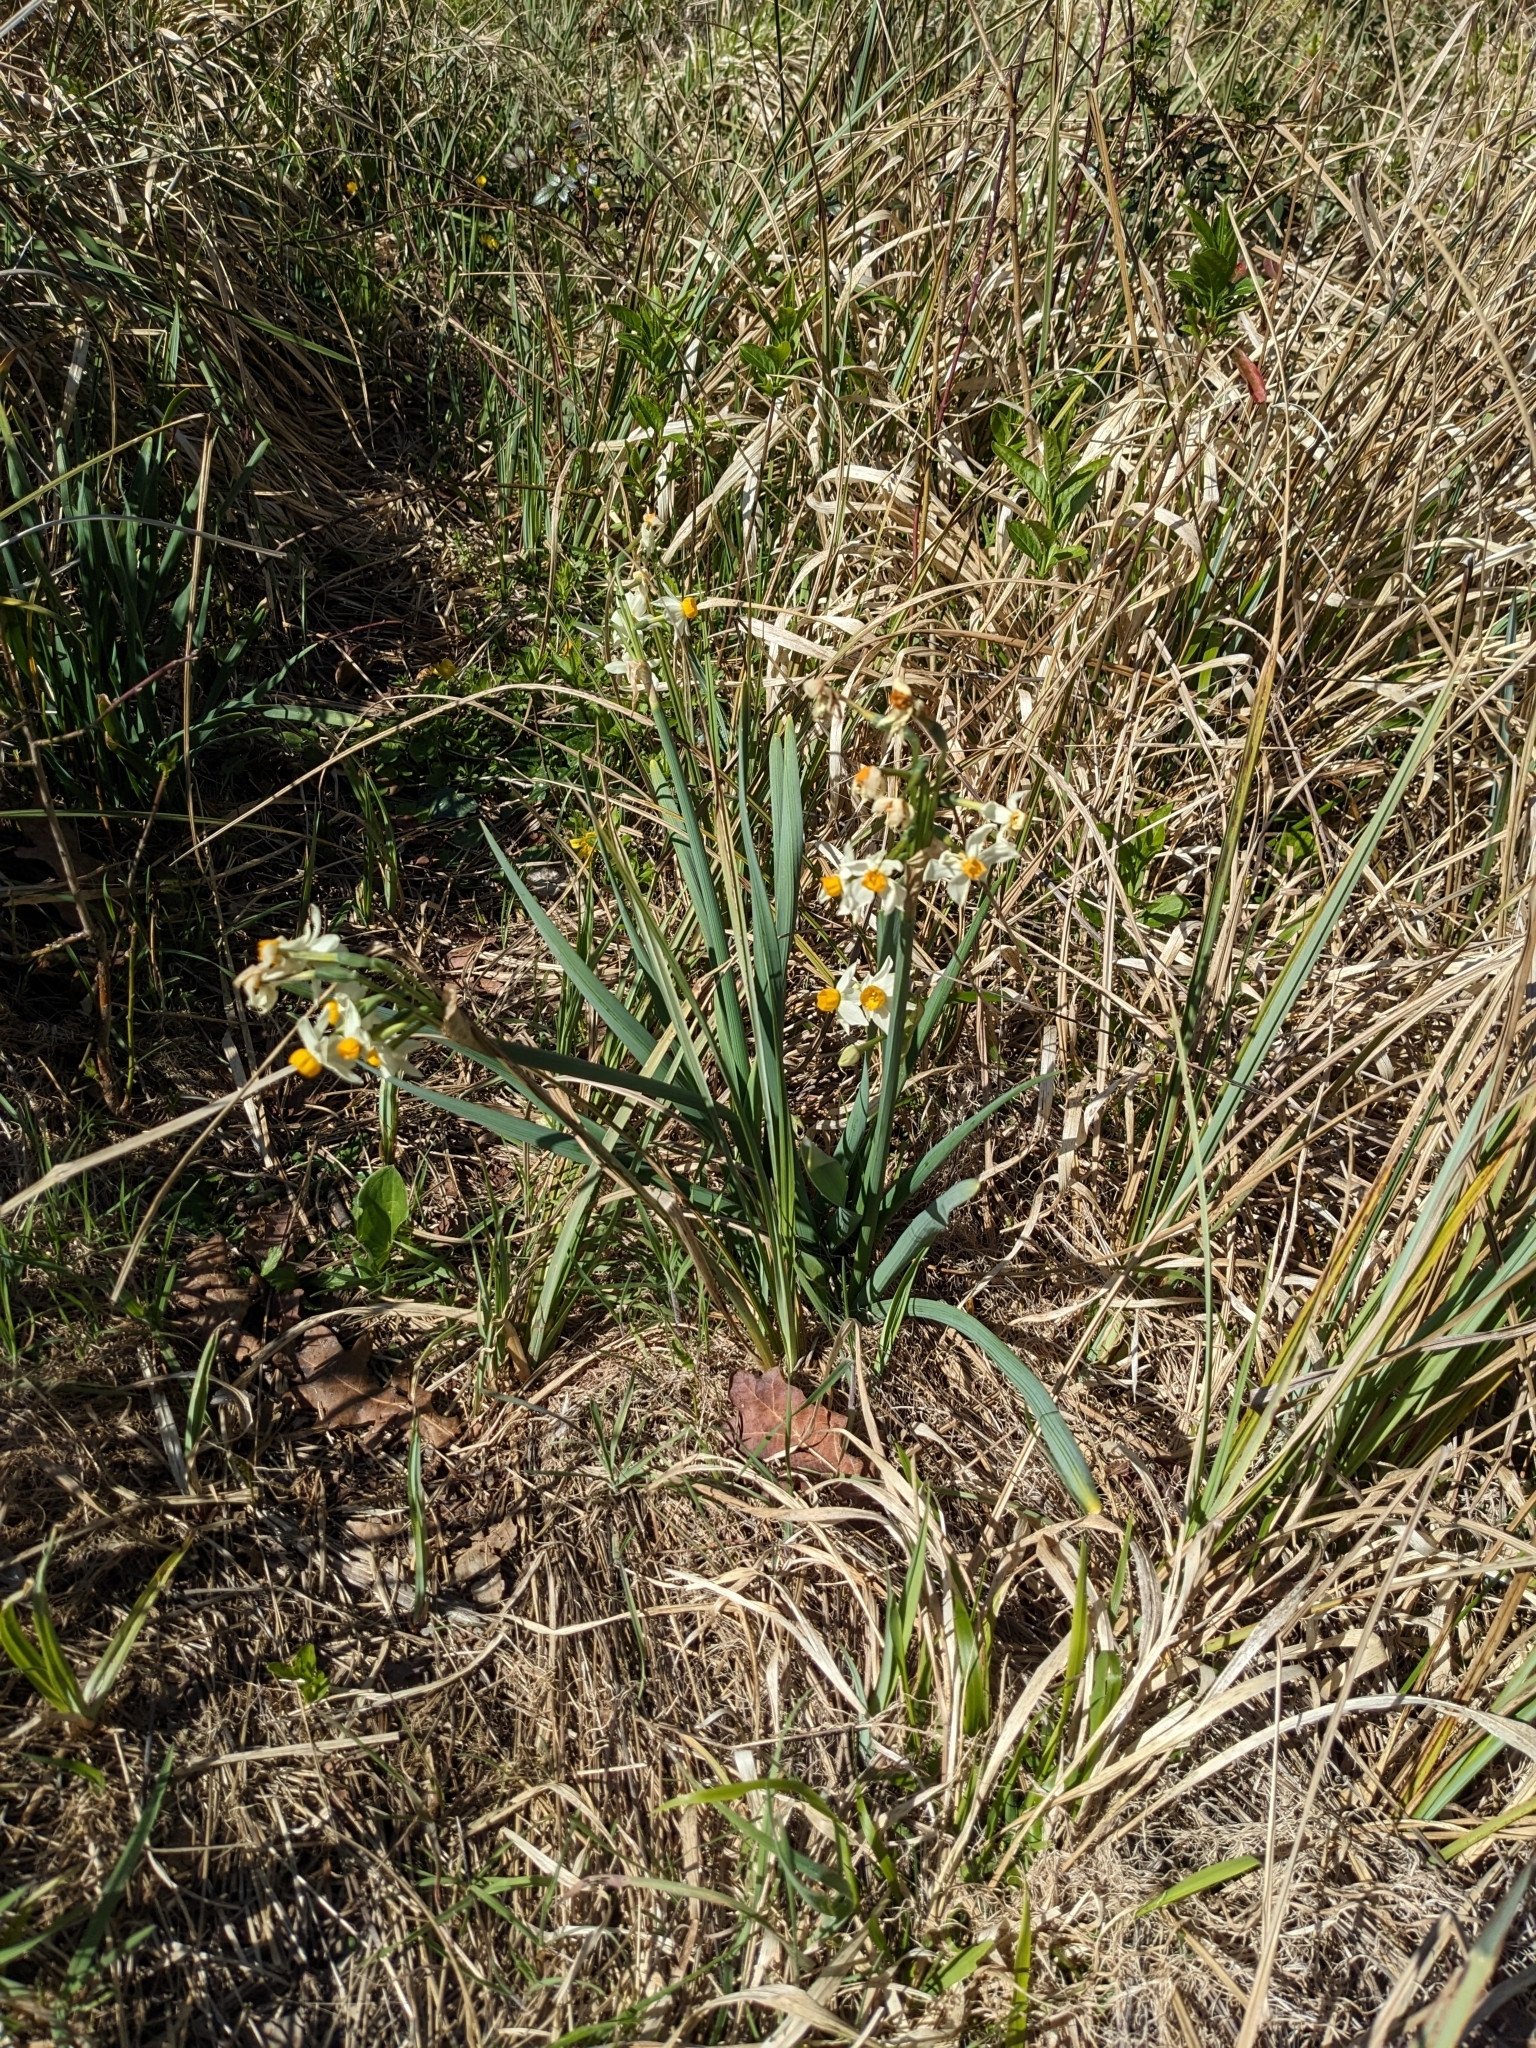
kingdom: Plantae
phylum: Tracheophyta
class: Liliopsida
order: Asparagales
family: Amaryllidaceae
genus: Narcissus
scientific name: Narcissus tazetta
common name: Bunch-flowered daffodil
